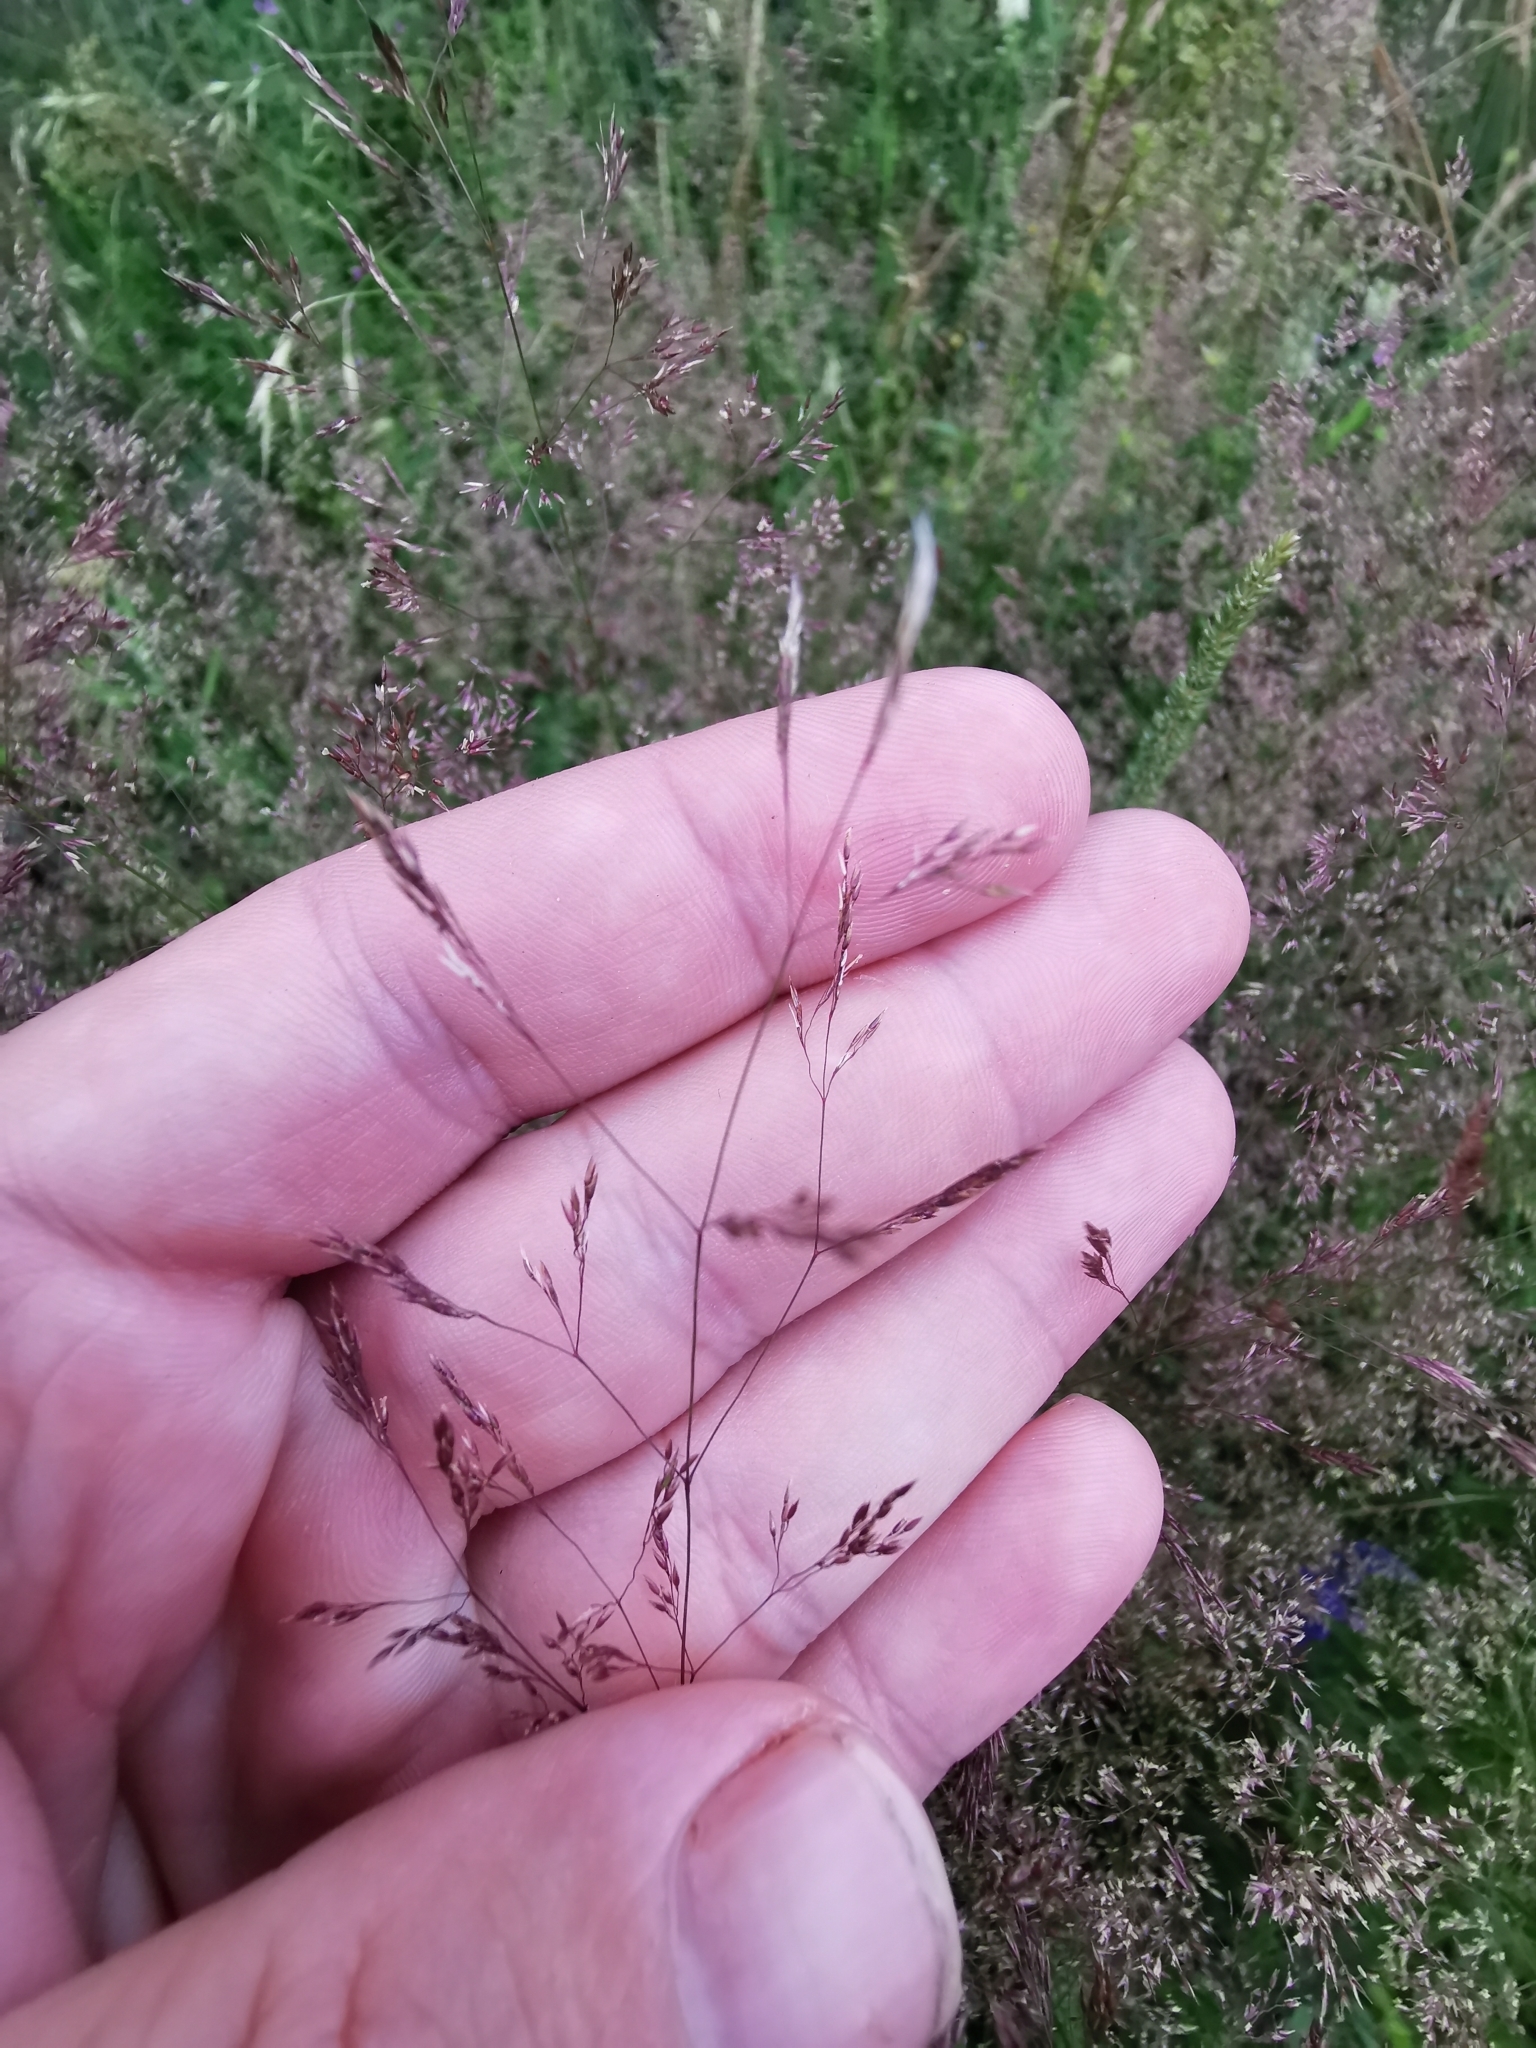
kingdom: Plantae
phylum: Tracheophyta
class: Liliopsida
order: Poales
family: Poaceae
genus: Agrostis
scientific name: Agrostis capillaris
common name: Colonial bentgrass
